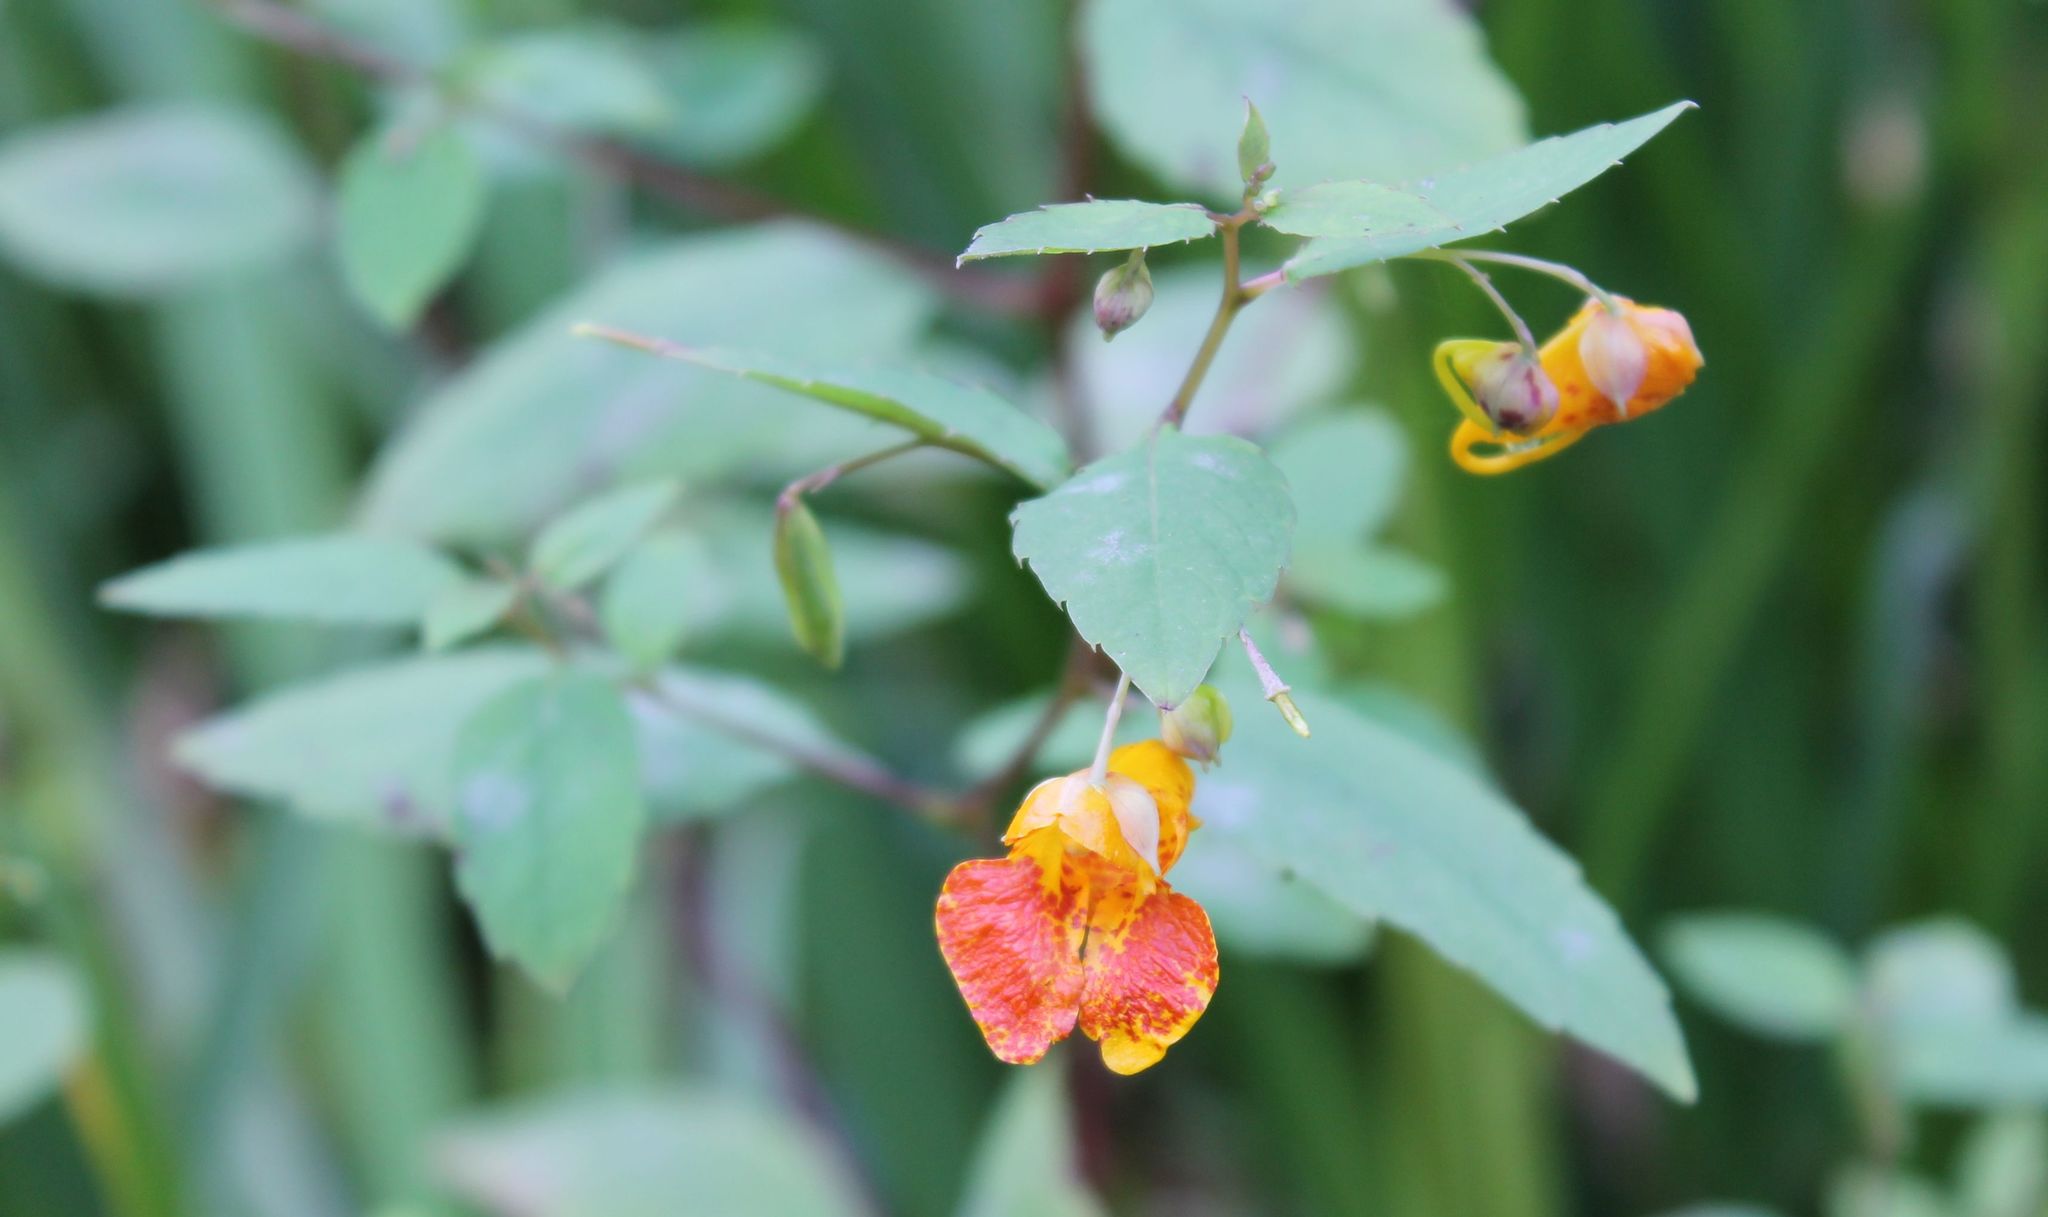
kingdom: Plantae
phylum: Tracheophyta
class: Magnoliopsida
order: Ericales
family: Balsaminaceae
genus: Impatiens
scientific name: Impatiens capensis
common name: Orange balsam
